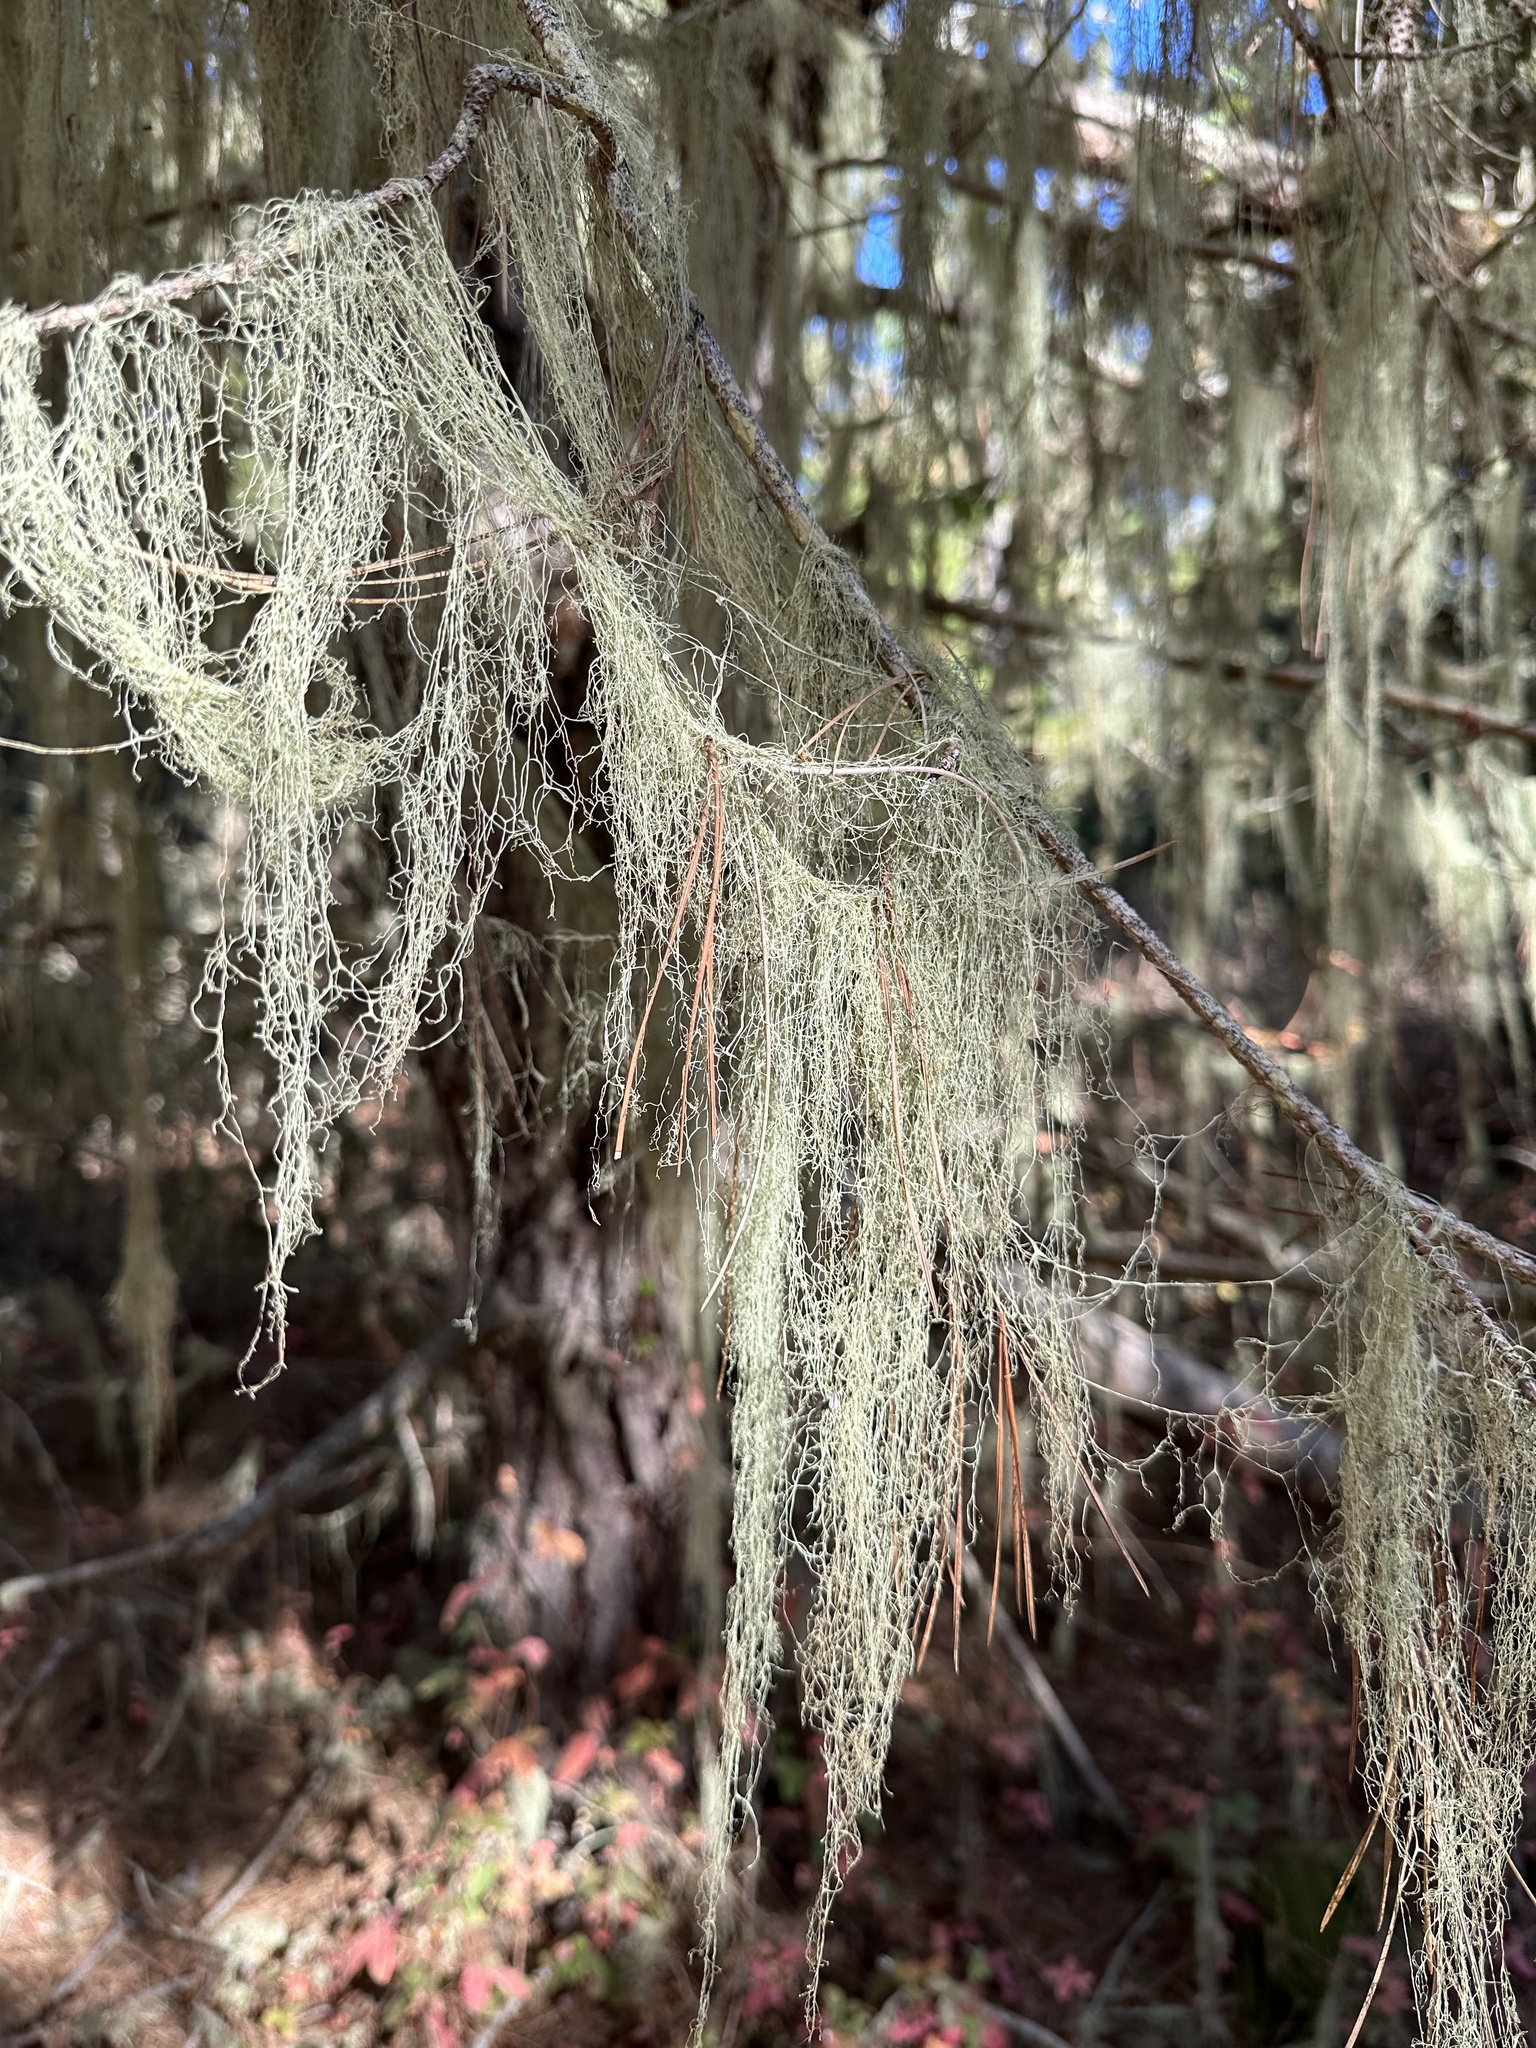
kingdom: Fungi
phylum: Ascomycota
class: Lecanoromycetes
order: Lecanorales
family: Ramalinaceae
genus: Ramalina
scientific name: Ramalina menziesii
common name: Lace lichen
